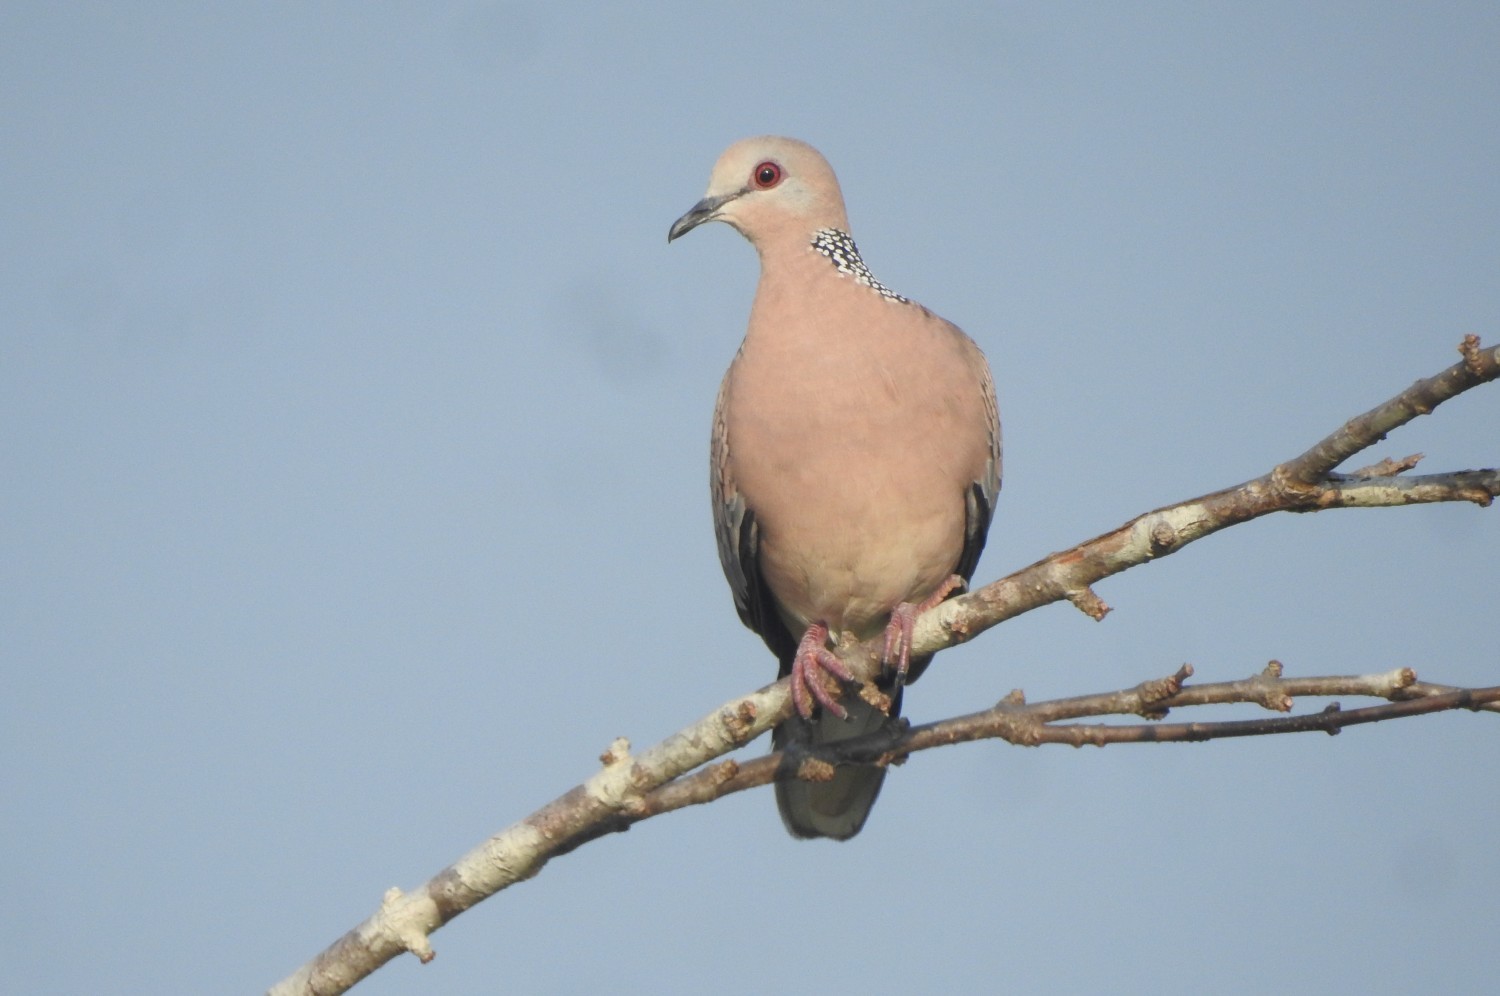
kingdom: Animalia
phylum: Chordata
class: Aves
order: Columbiformes
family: Columbidae
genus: Spilopelia
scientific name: Spilopelia chinensis
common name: Spotted dove
